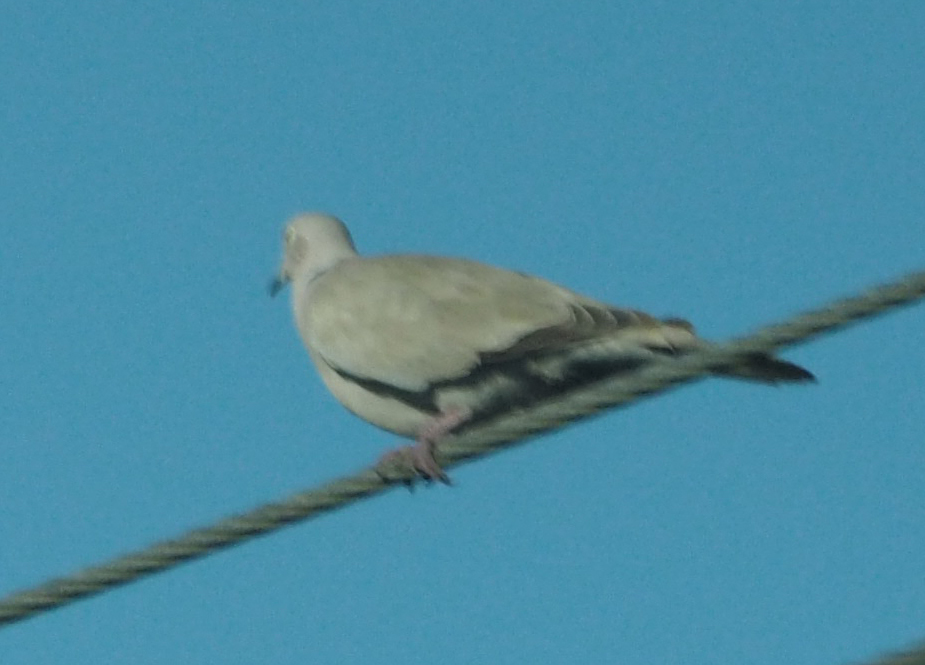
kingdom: Animalia
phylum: Chordata
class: Aves
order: Columbiformes
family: Columbidae
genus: Streptopelia
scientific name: Streptopelia decaocto
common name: Eurasian collared dove
